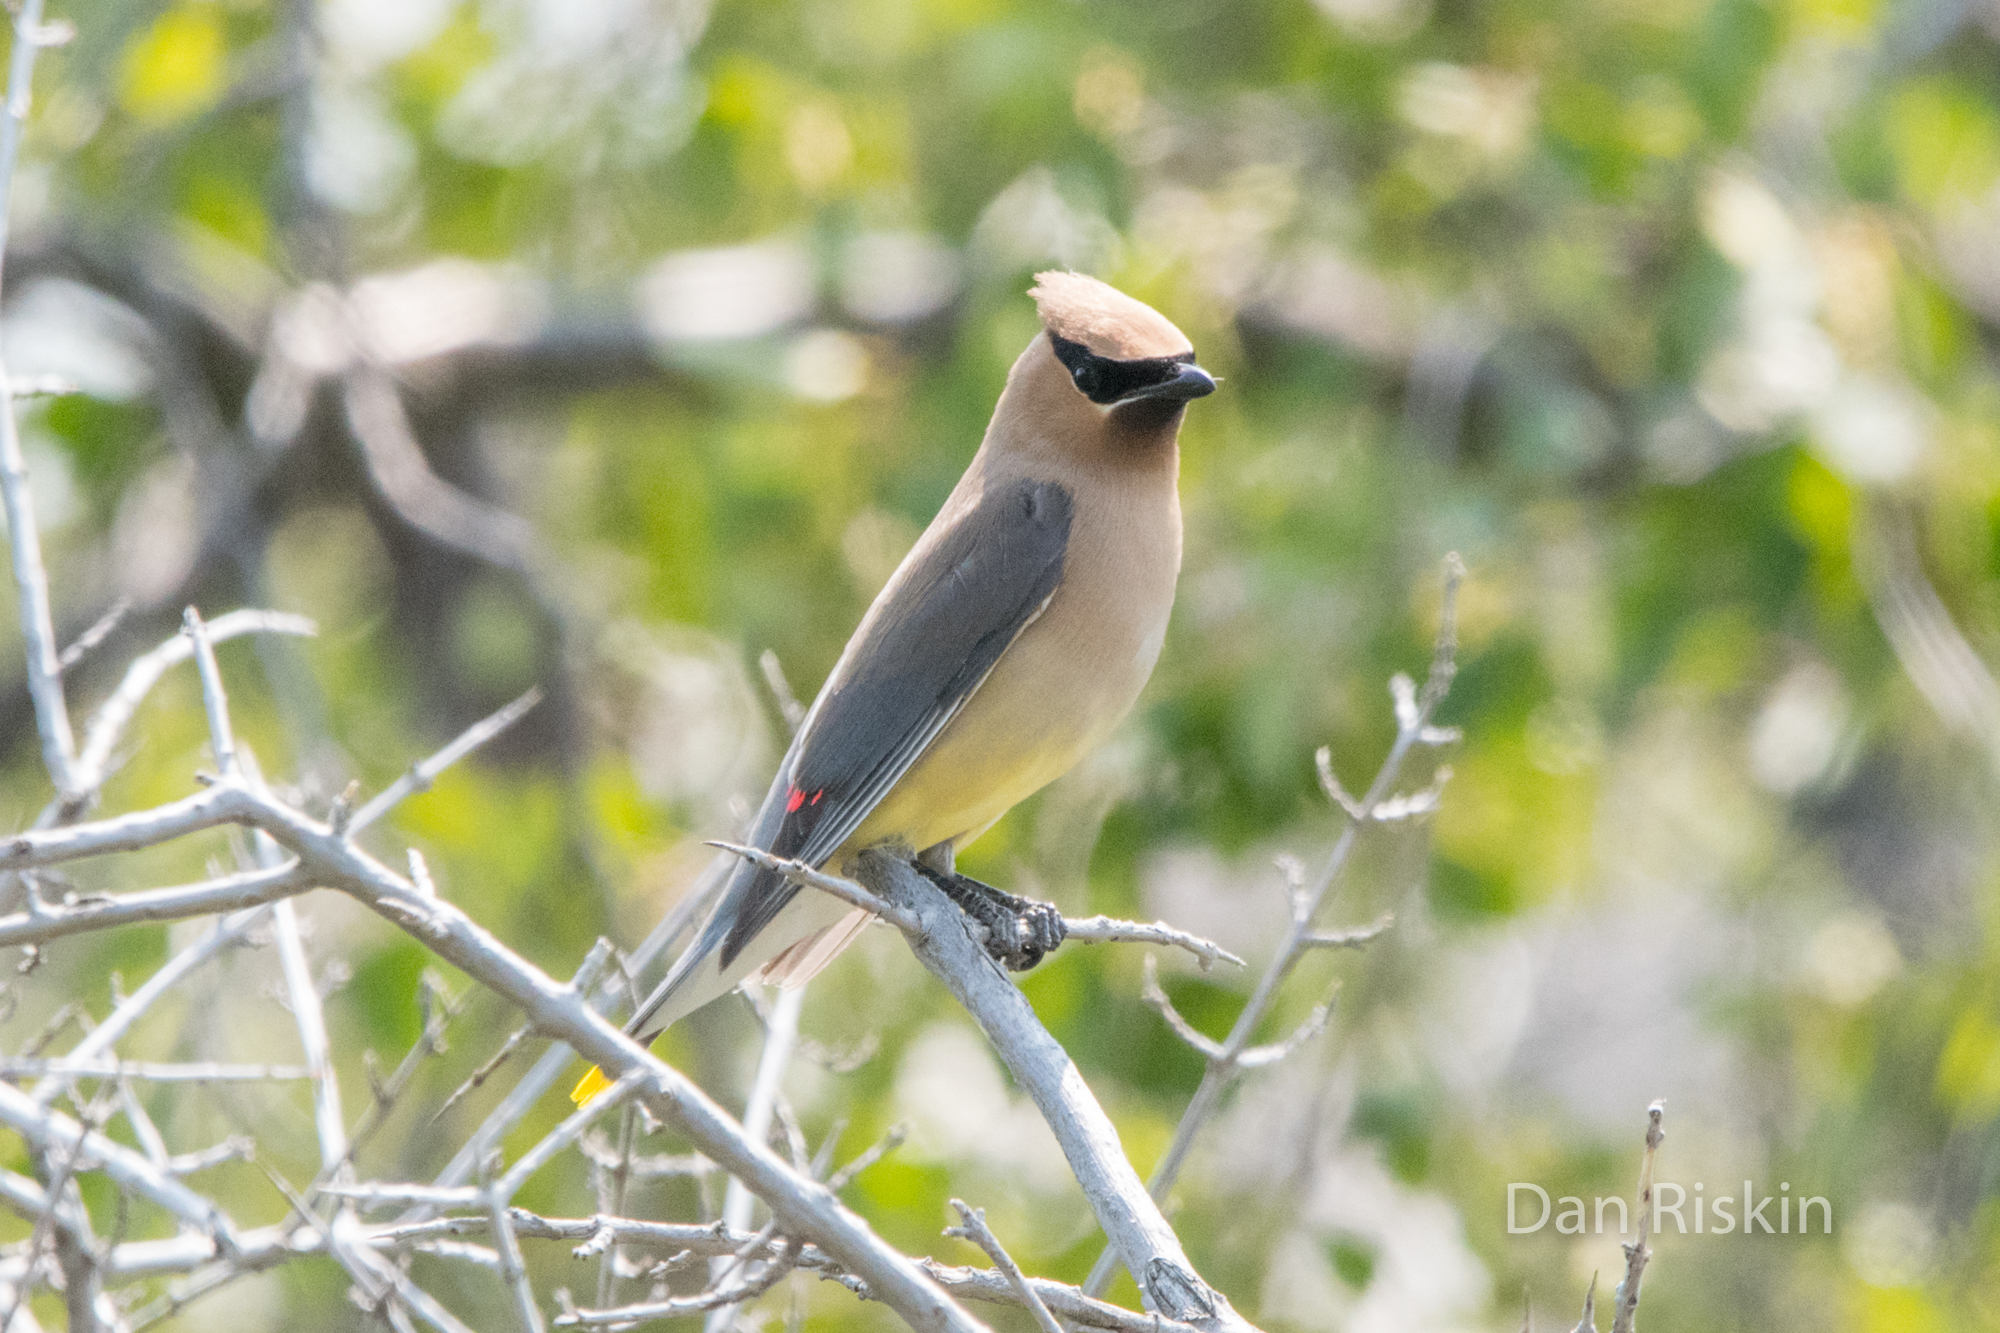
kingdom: Animalia
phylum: Chordata
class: Aves
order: Passeriformes
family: Bombycillidae
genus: Bombycilla
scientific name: Bombycilla cedrorum
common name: Cedar waxwing
